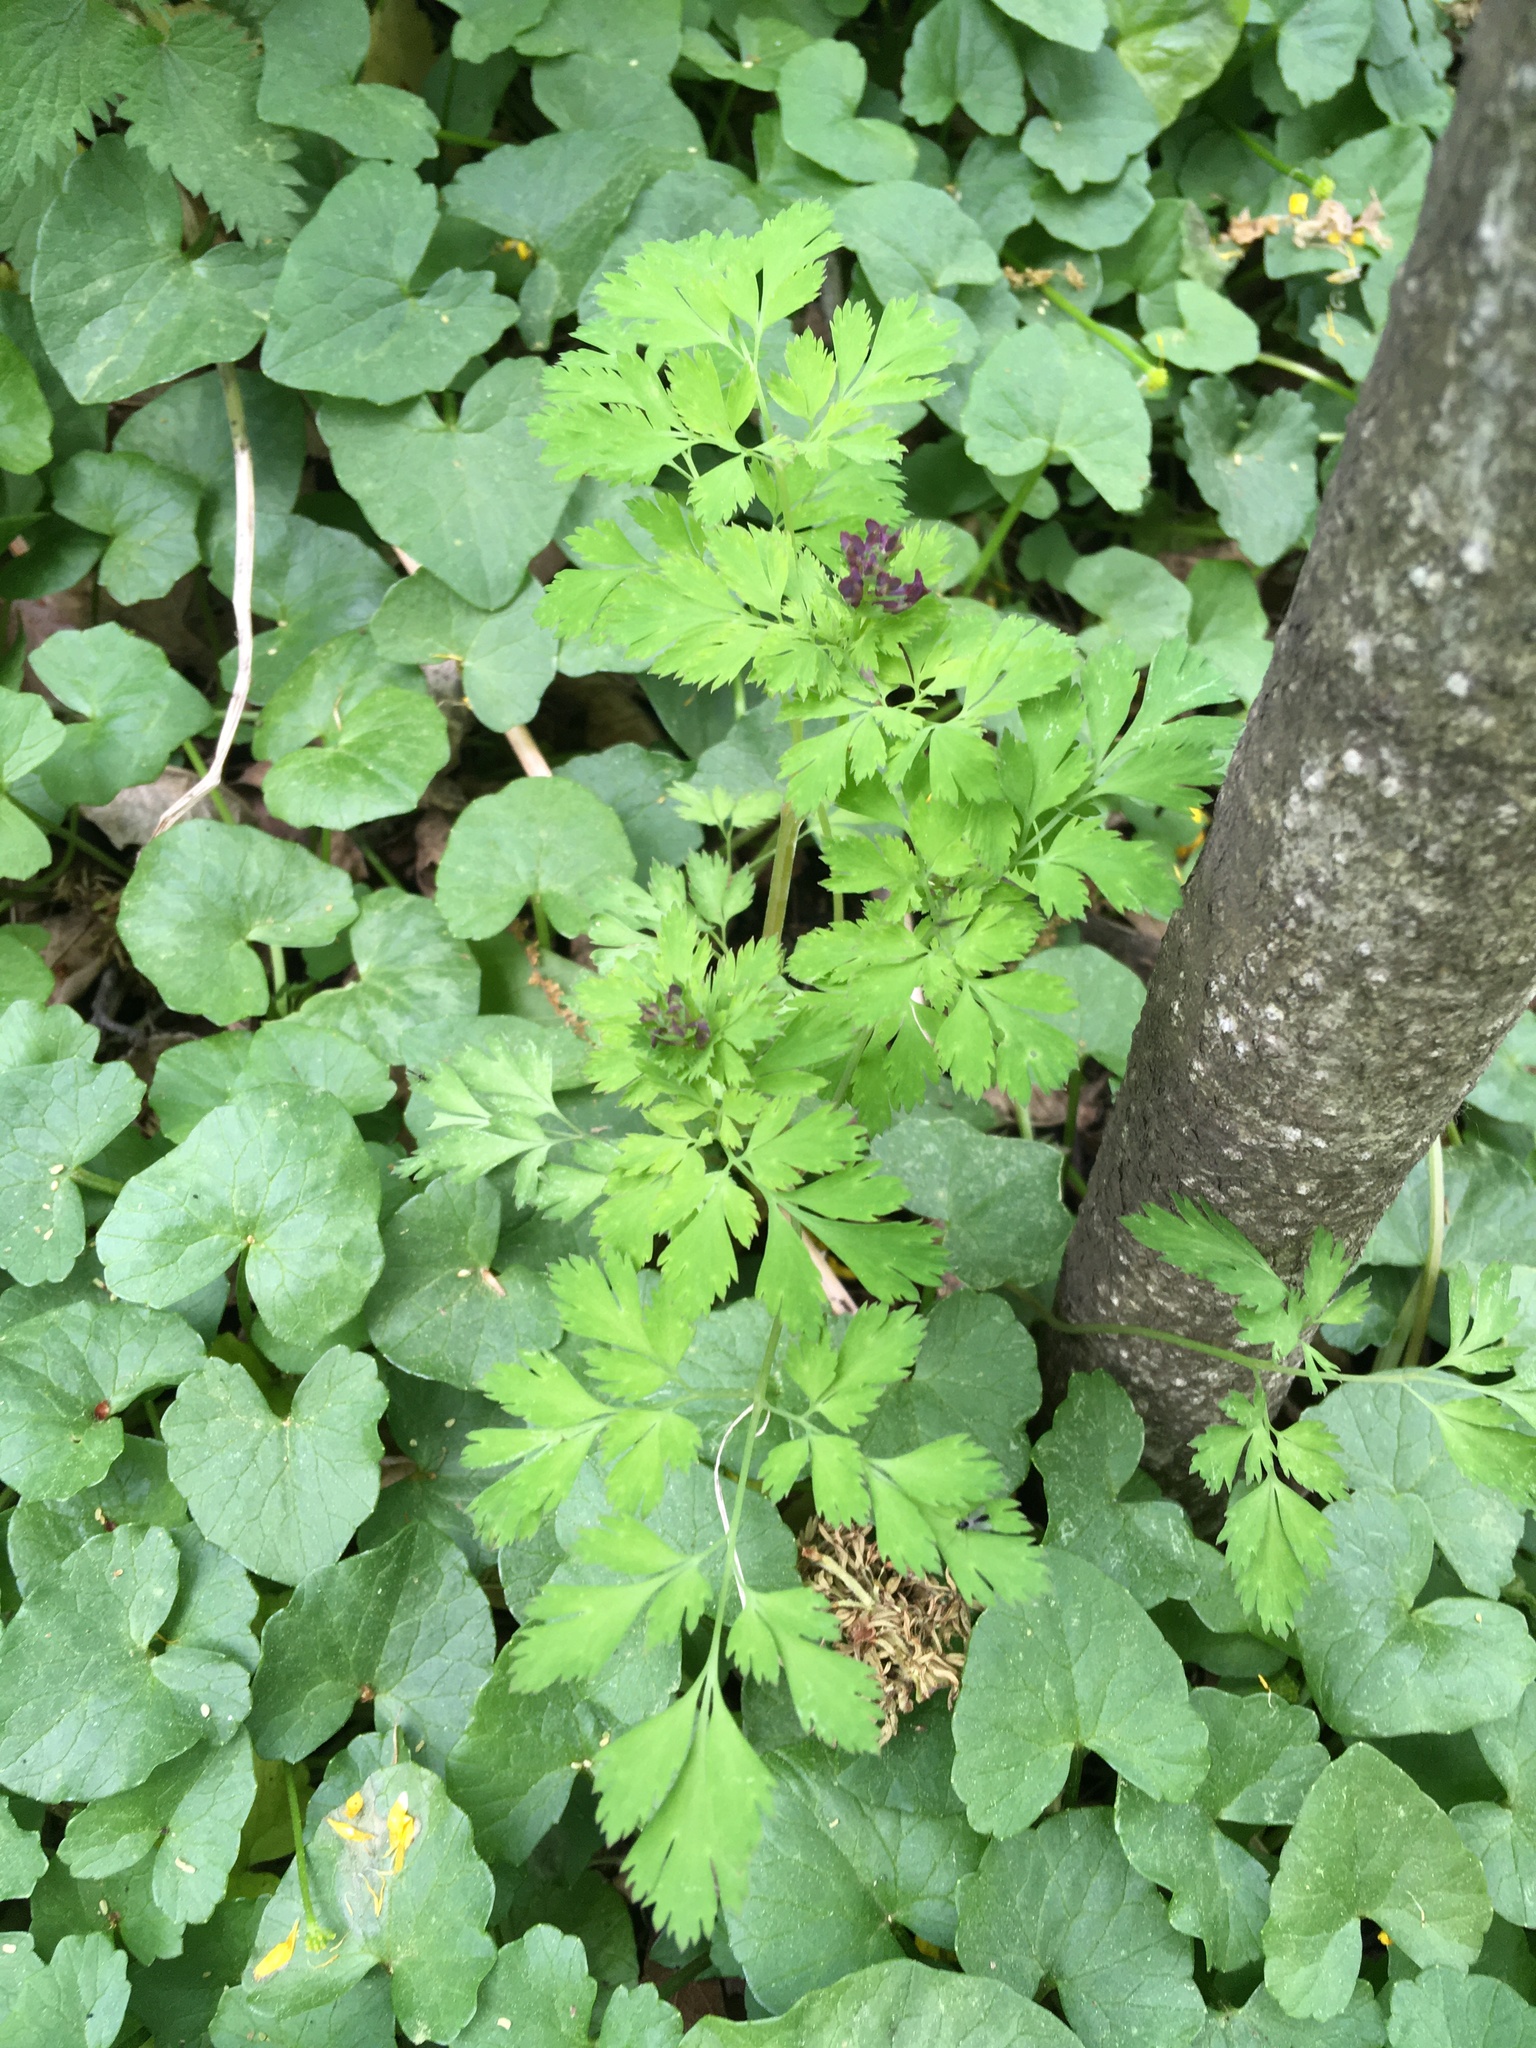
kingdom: Plantae
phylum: Tracheophyta
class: Magnoliopsida
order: Ranunculales
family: Papaveraceae
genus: Corydalis
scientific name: Corydalis incisa
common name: Incised fumewort
